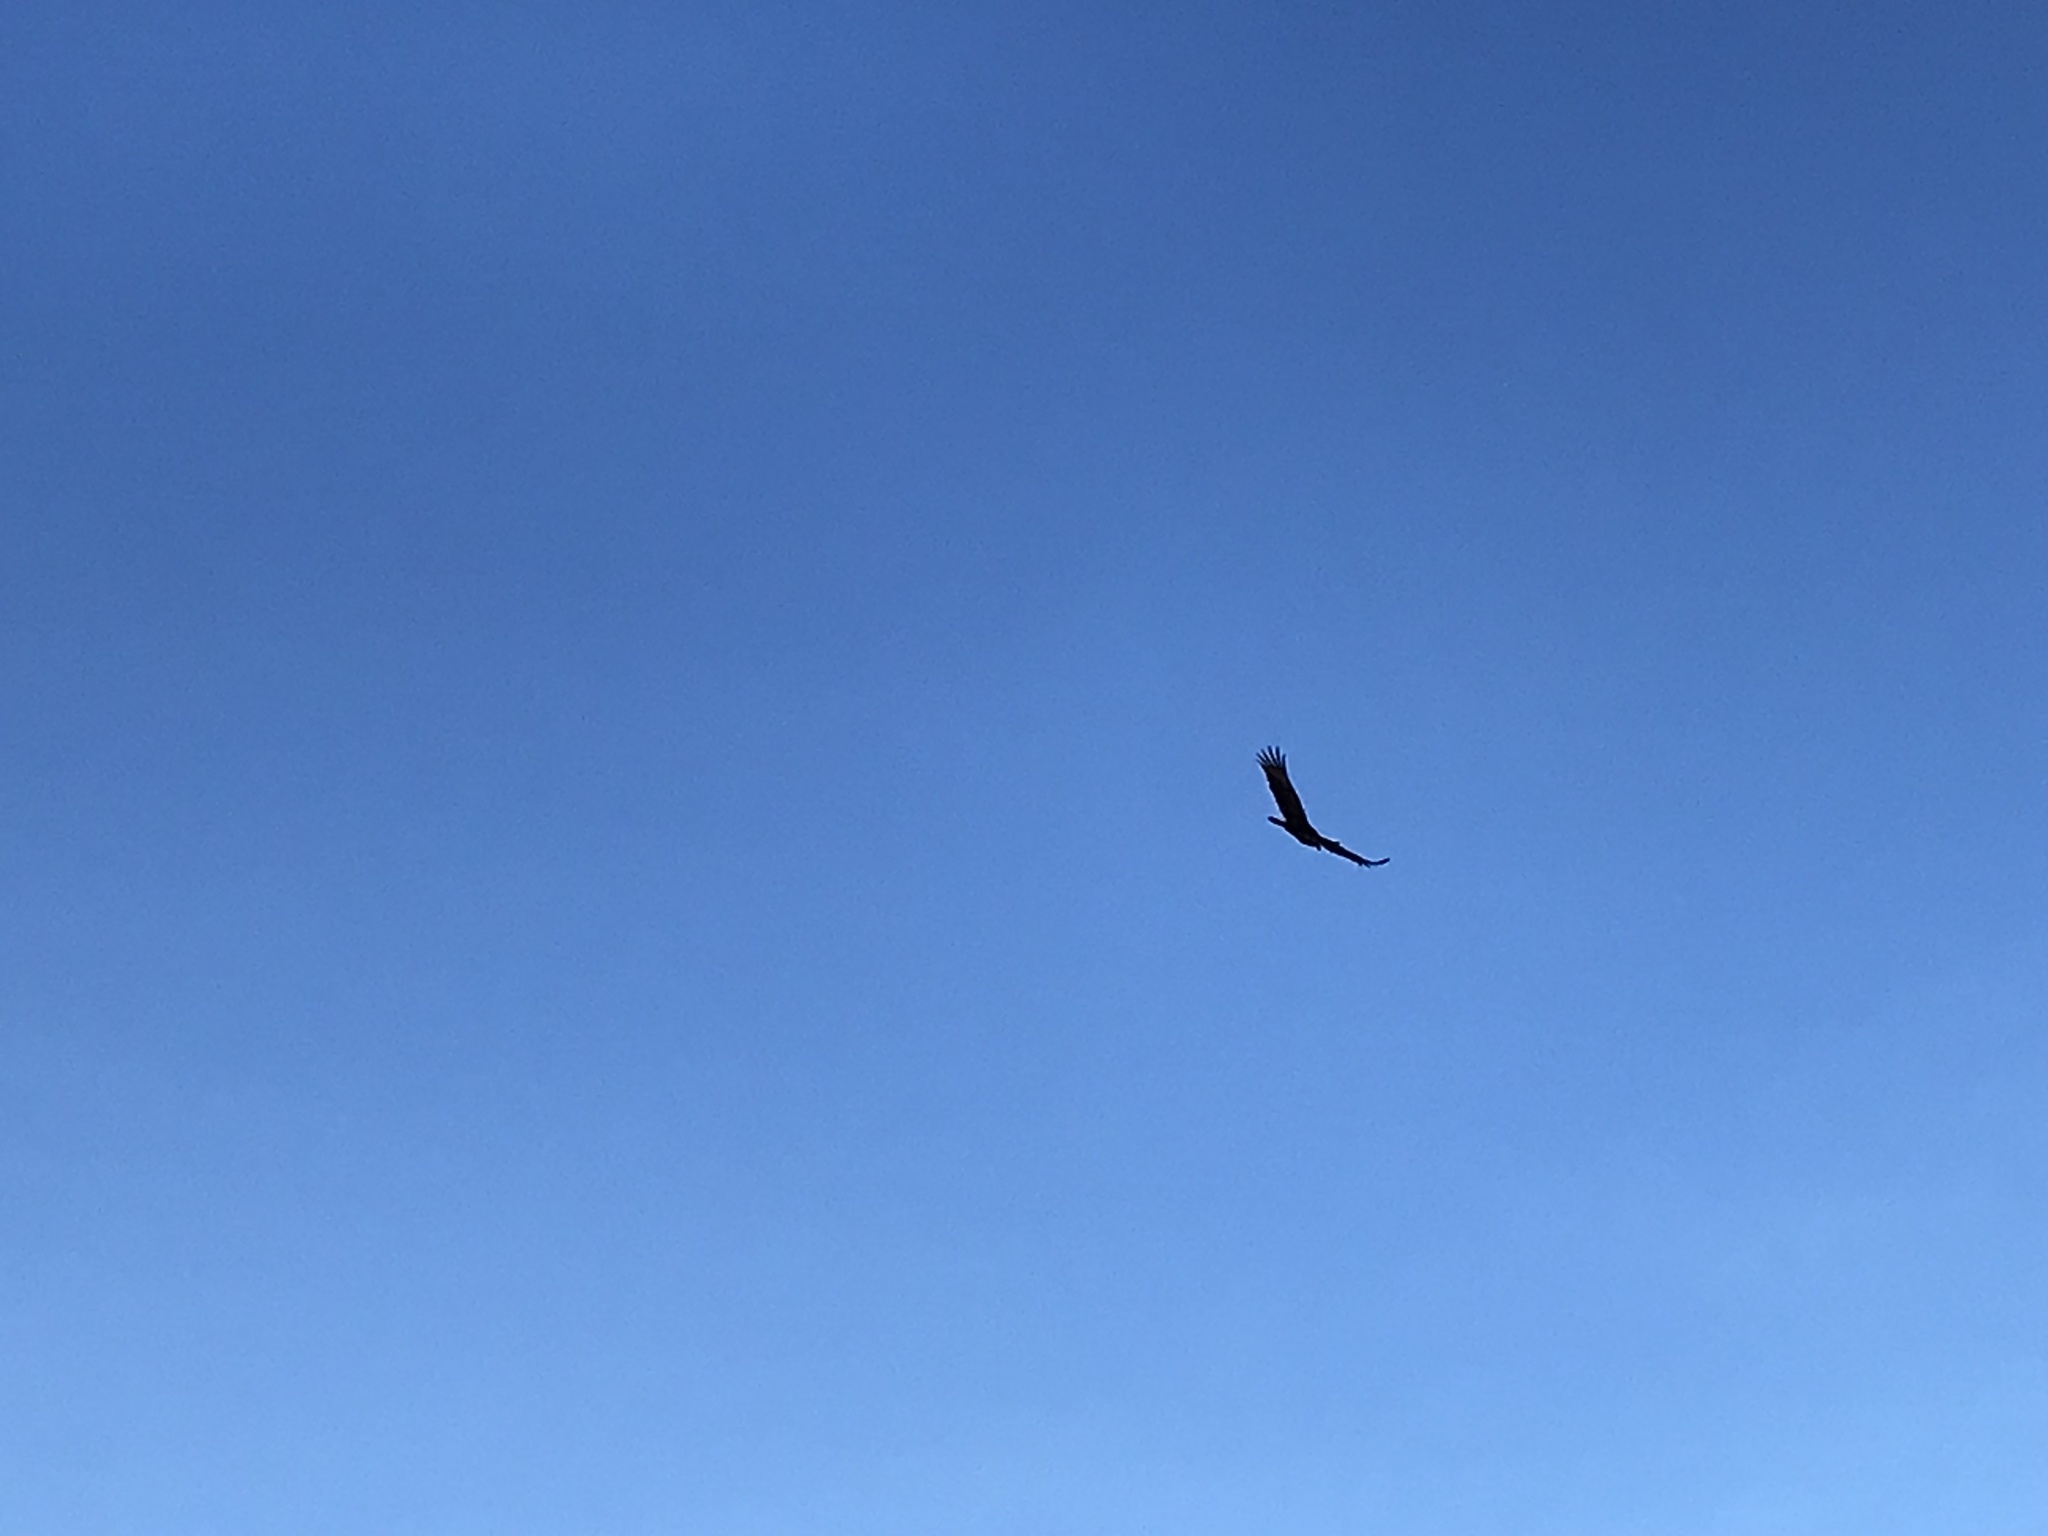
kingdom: Animalia
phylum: Chordata
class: Aves
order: Accipitriformes
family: Cathartidae
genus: Cathartes
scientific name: Cathartes aura
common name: Turkey vulture
